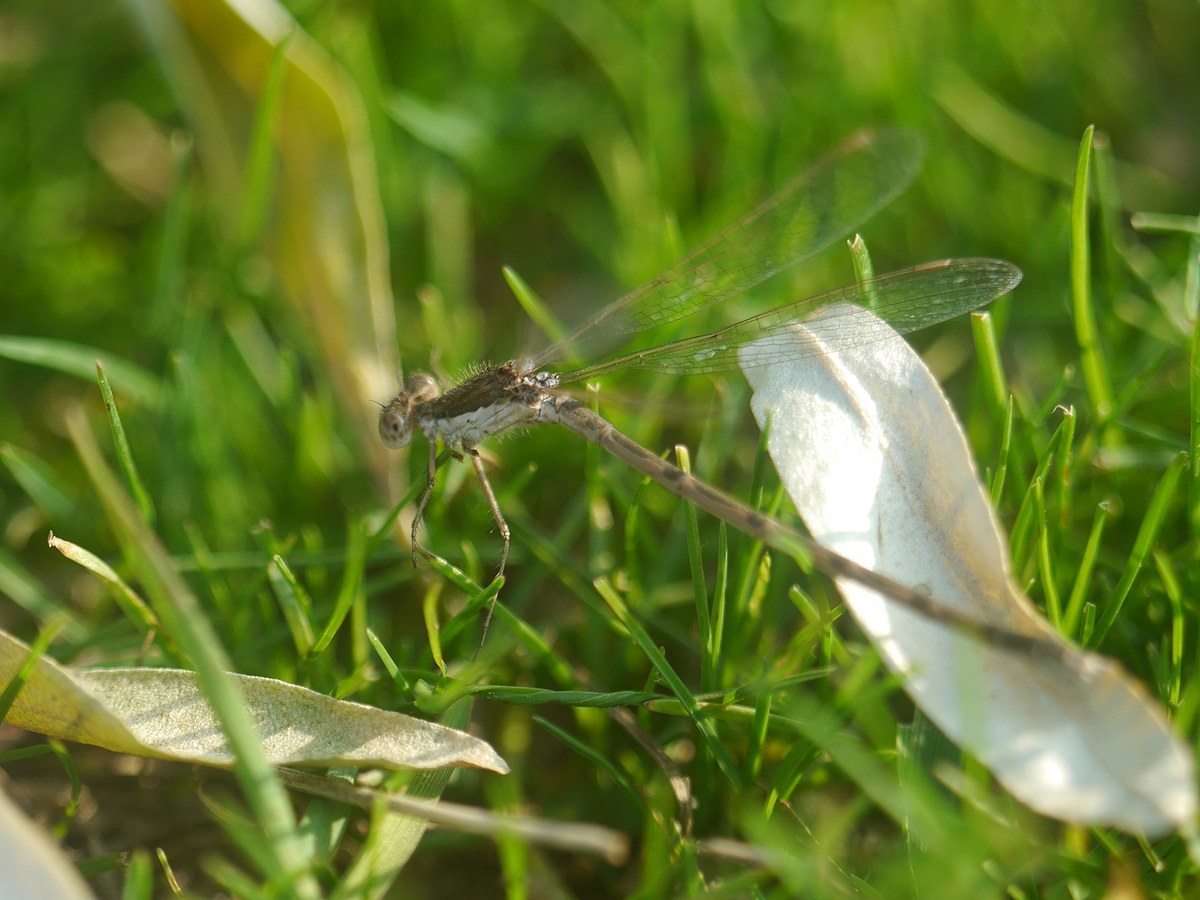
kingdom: Animalia
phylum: Arthropoda
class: Insecta
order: Odonata
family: Lestidae
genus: Sympecma
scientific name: Sympecma fusca
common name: Common winter damsel
